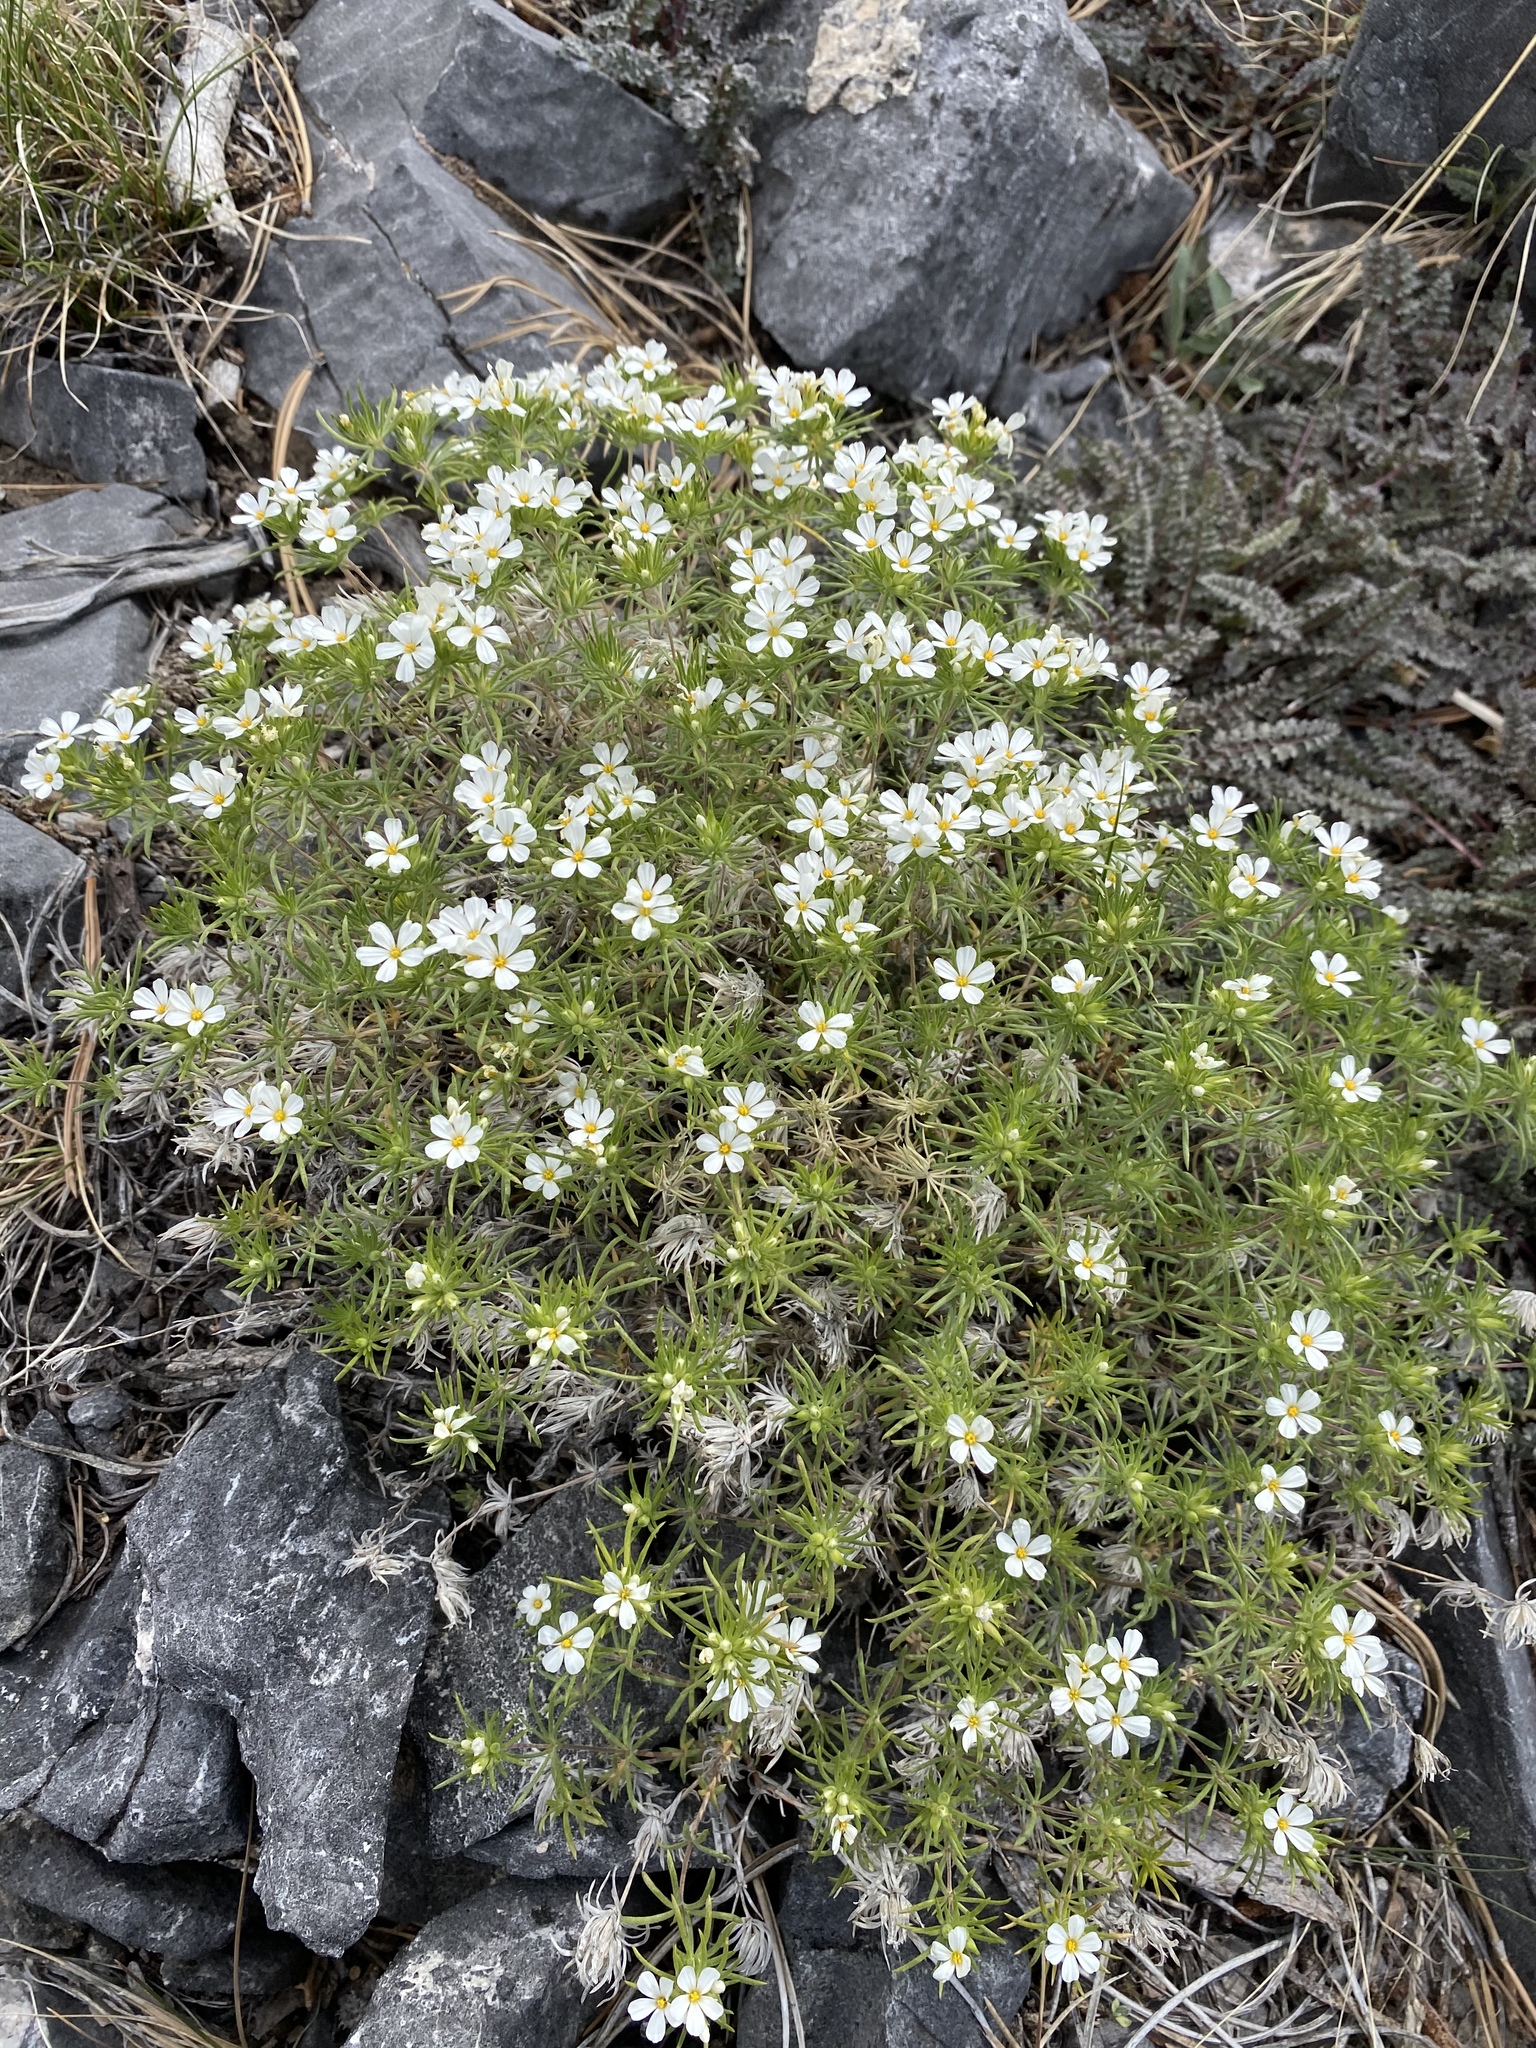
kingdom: Plantae
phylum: Tracheophyta
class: Magnoliopsida
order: Ericales
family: Polemoniaceae
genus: Leptosiphon
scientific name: Leptosiphon nuttallii
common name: Nuttall's linanthus
